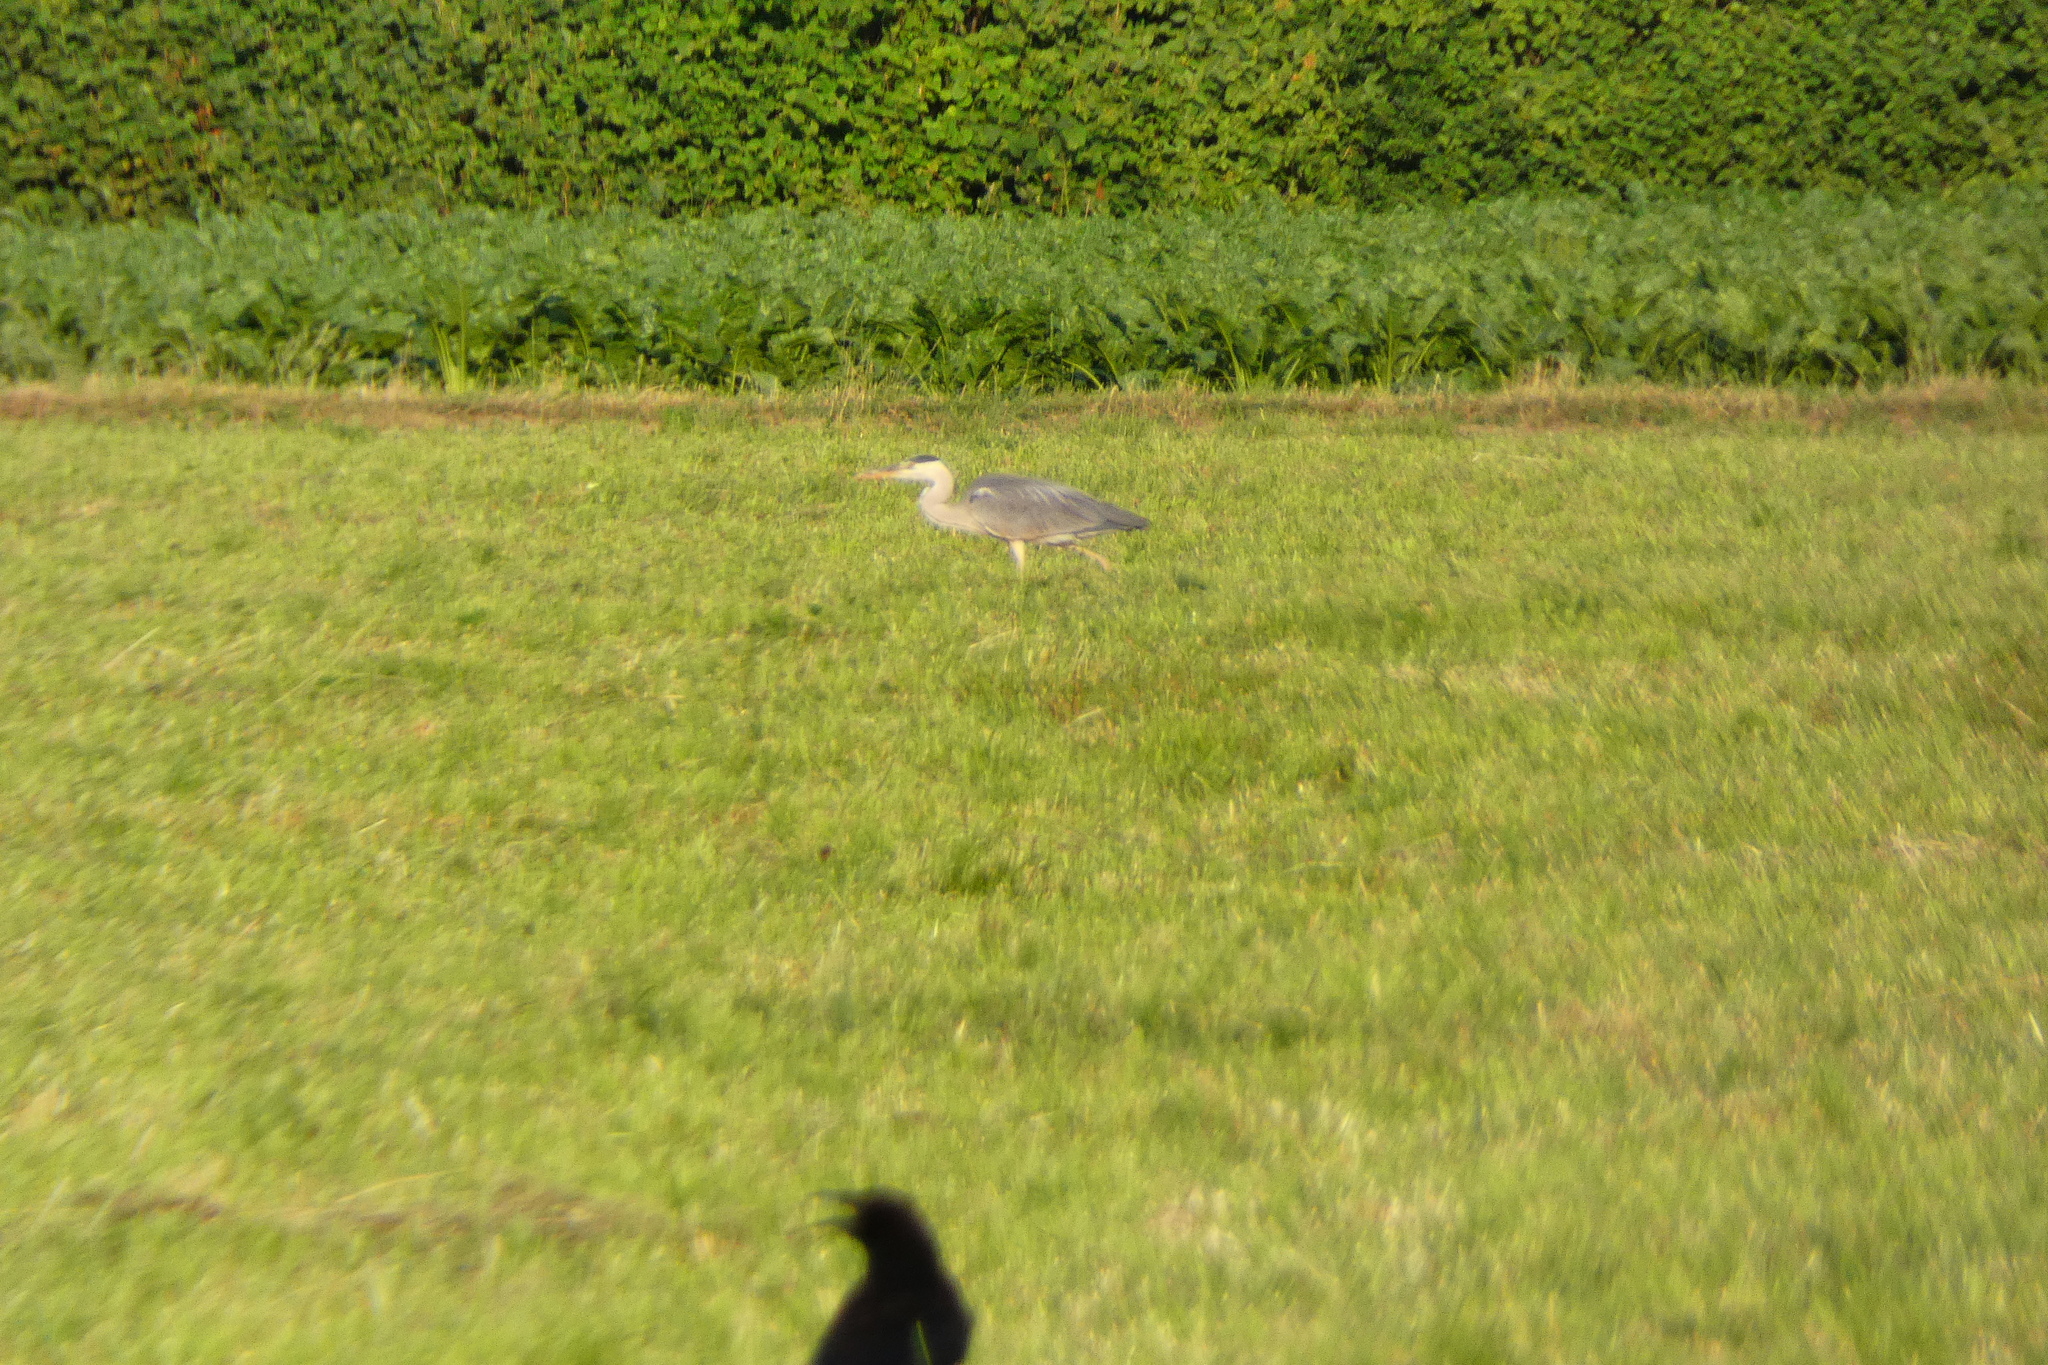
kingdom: Animalia
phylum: Chordata
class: Aves
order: Pelecaniformes
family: Ardeidae
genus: Ardea
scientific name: Ardea cinerea
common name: Grey heron
